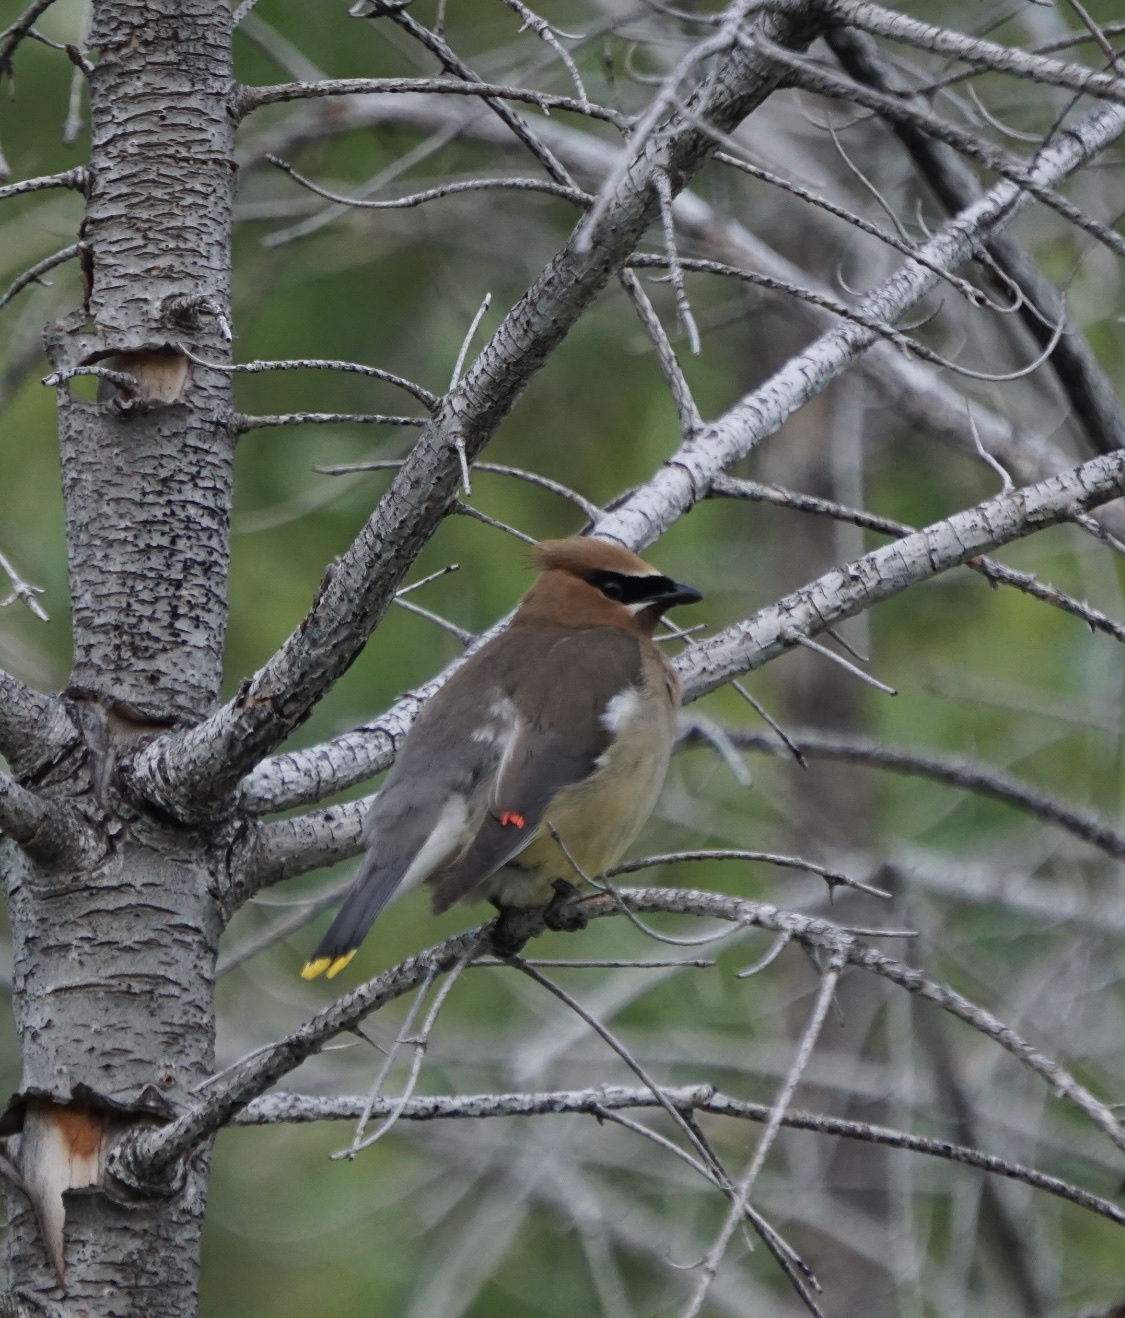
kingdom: Animalia
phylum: Chordata
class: Aves
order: Passeriformes
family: Bombycillidae
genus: Bombycilla
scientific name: Bombycilla cedrorum
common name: Cedar waxwing
